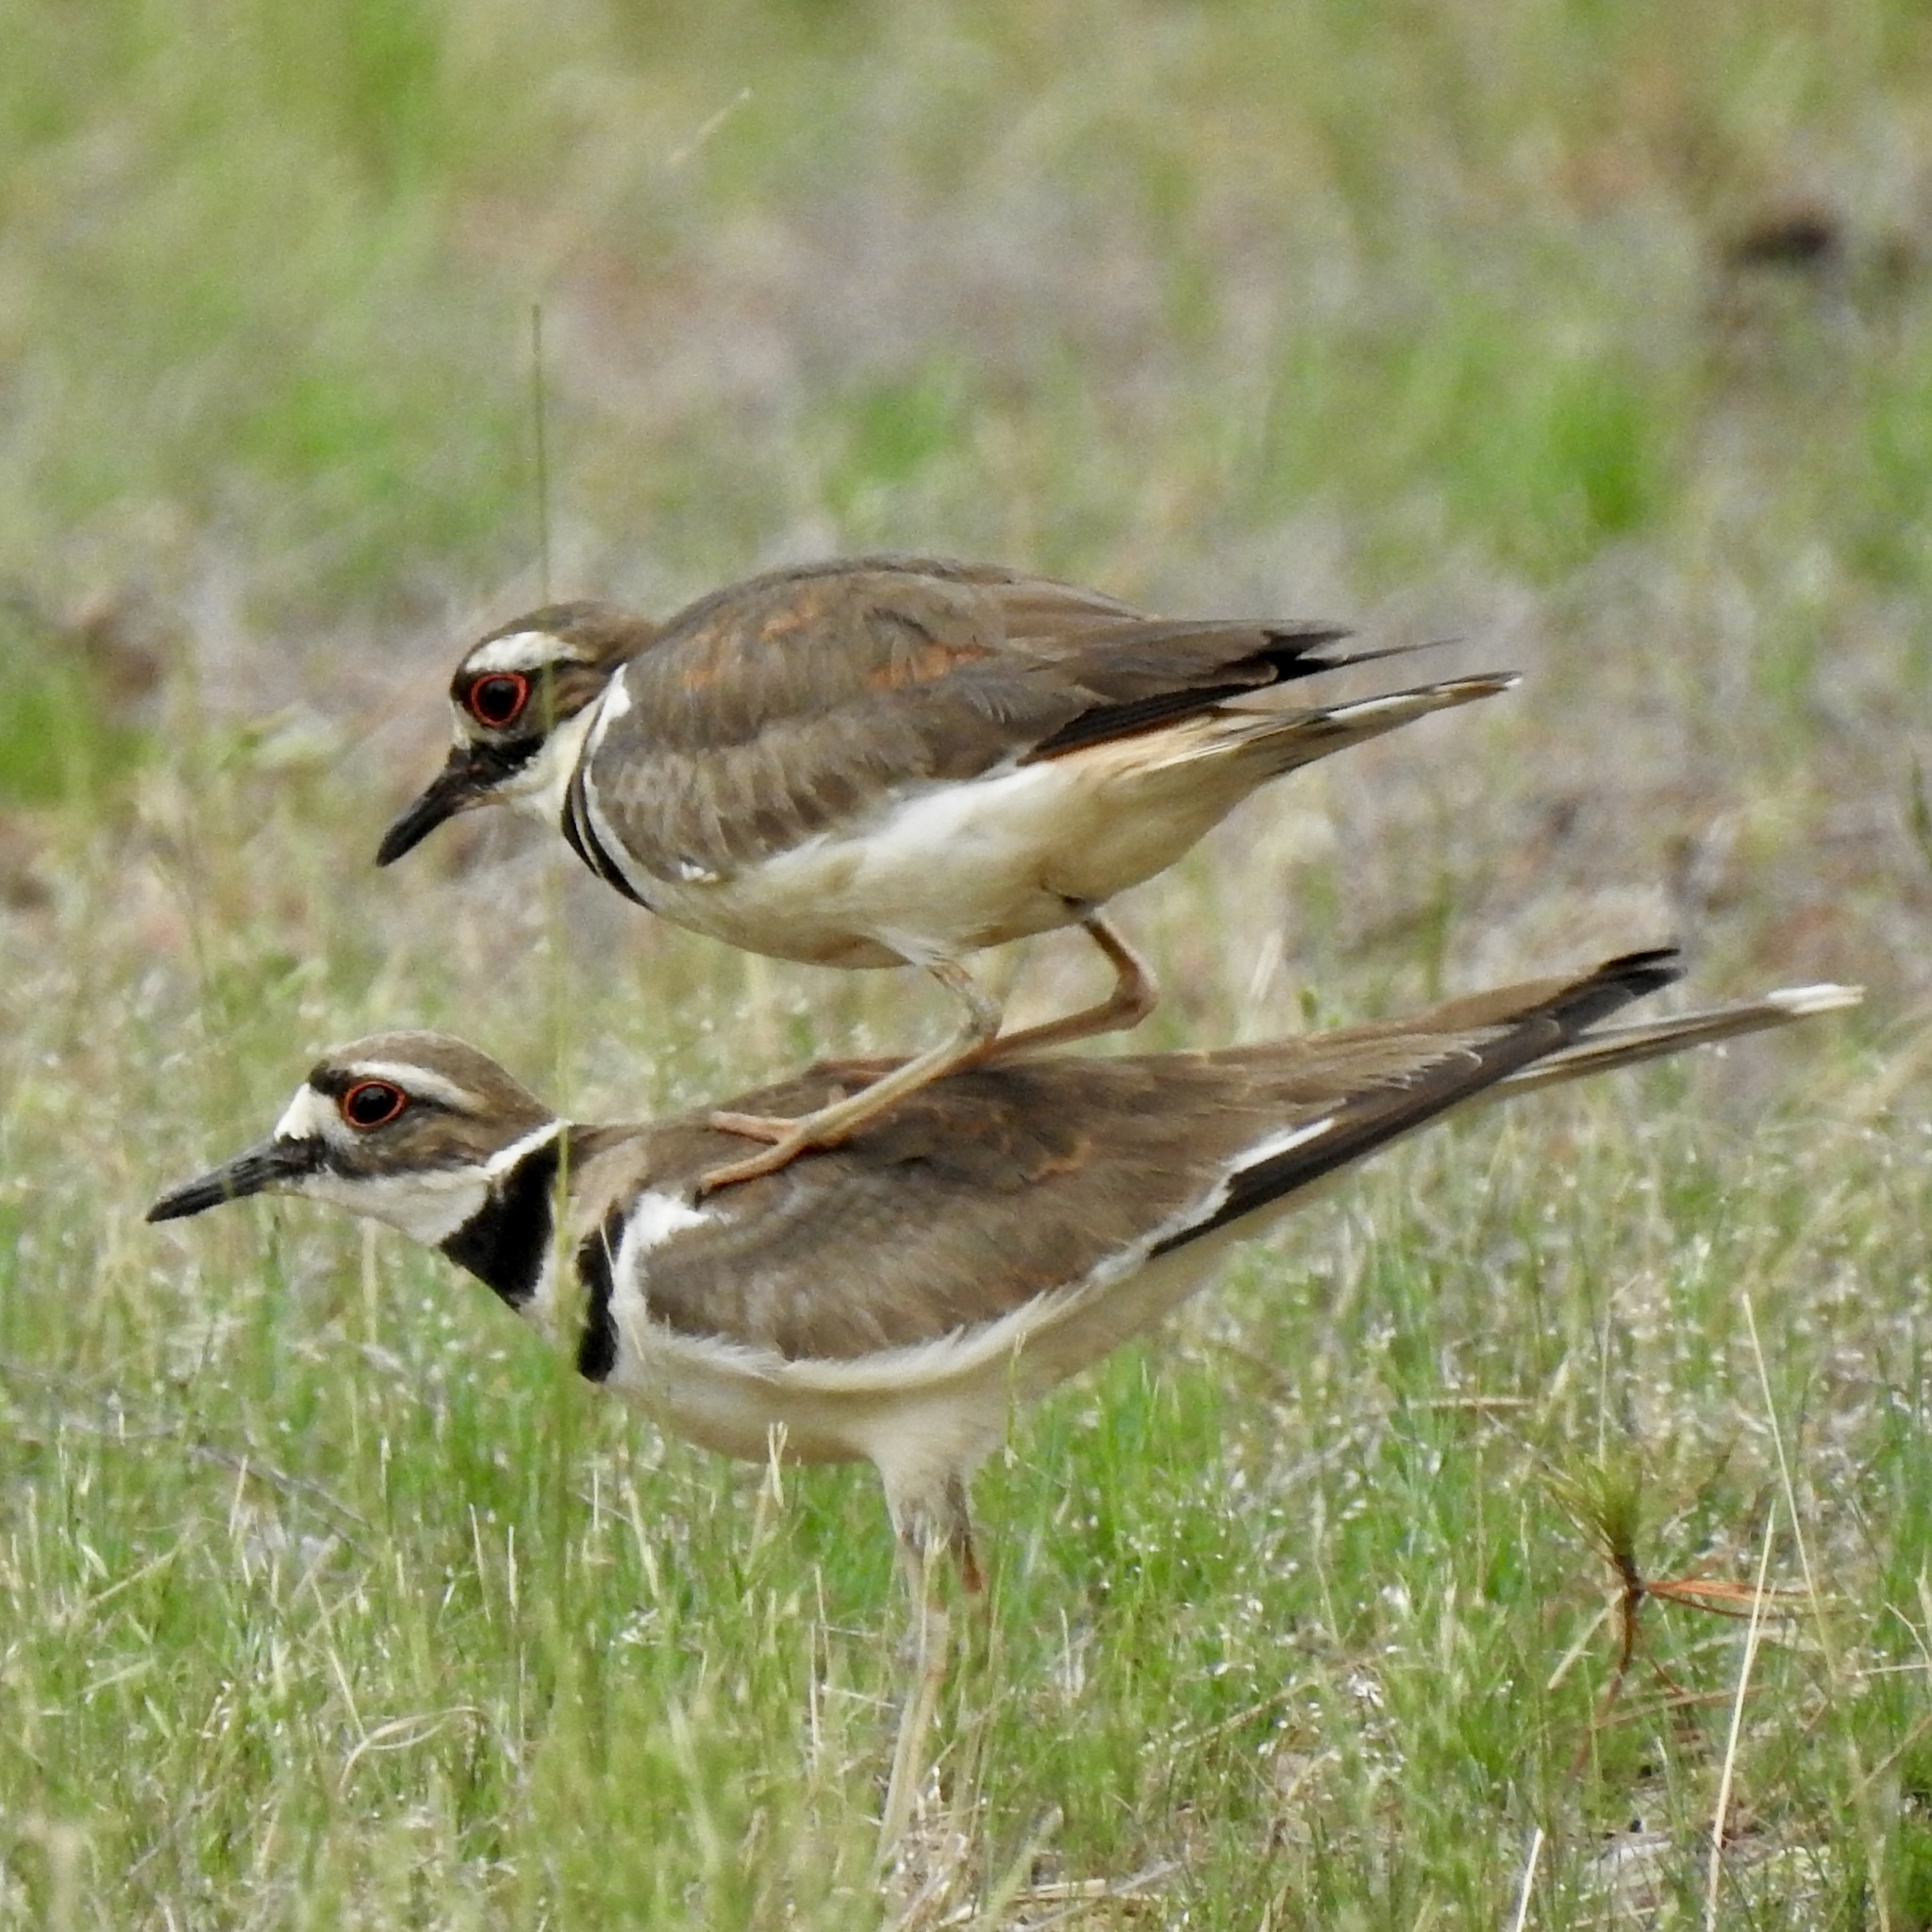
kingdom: Animalia
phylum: Chordata
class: Aves
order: Charadriiformes
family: Charadriidae
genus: Charadrius
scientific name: Charadrius vociferus
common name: Killdeer
